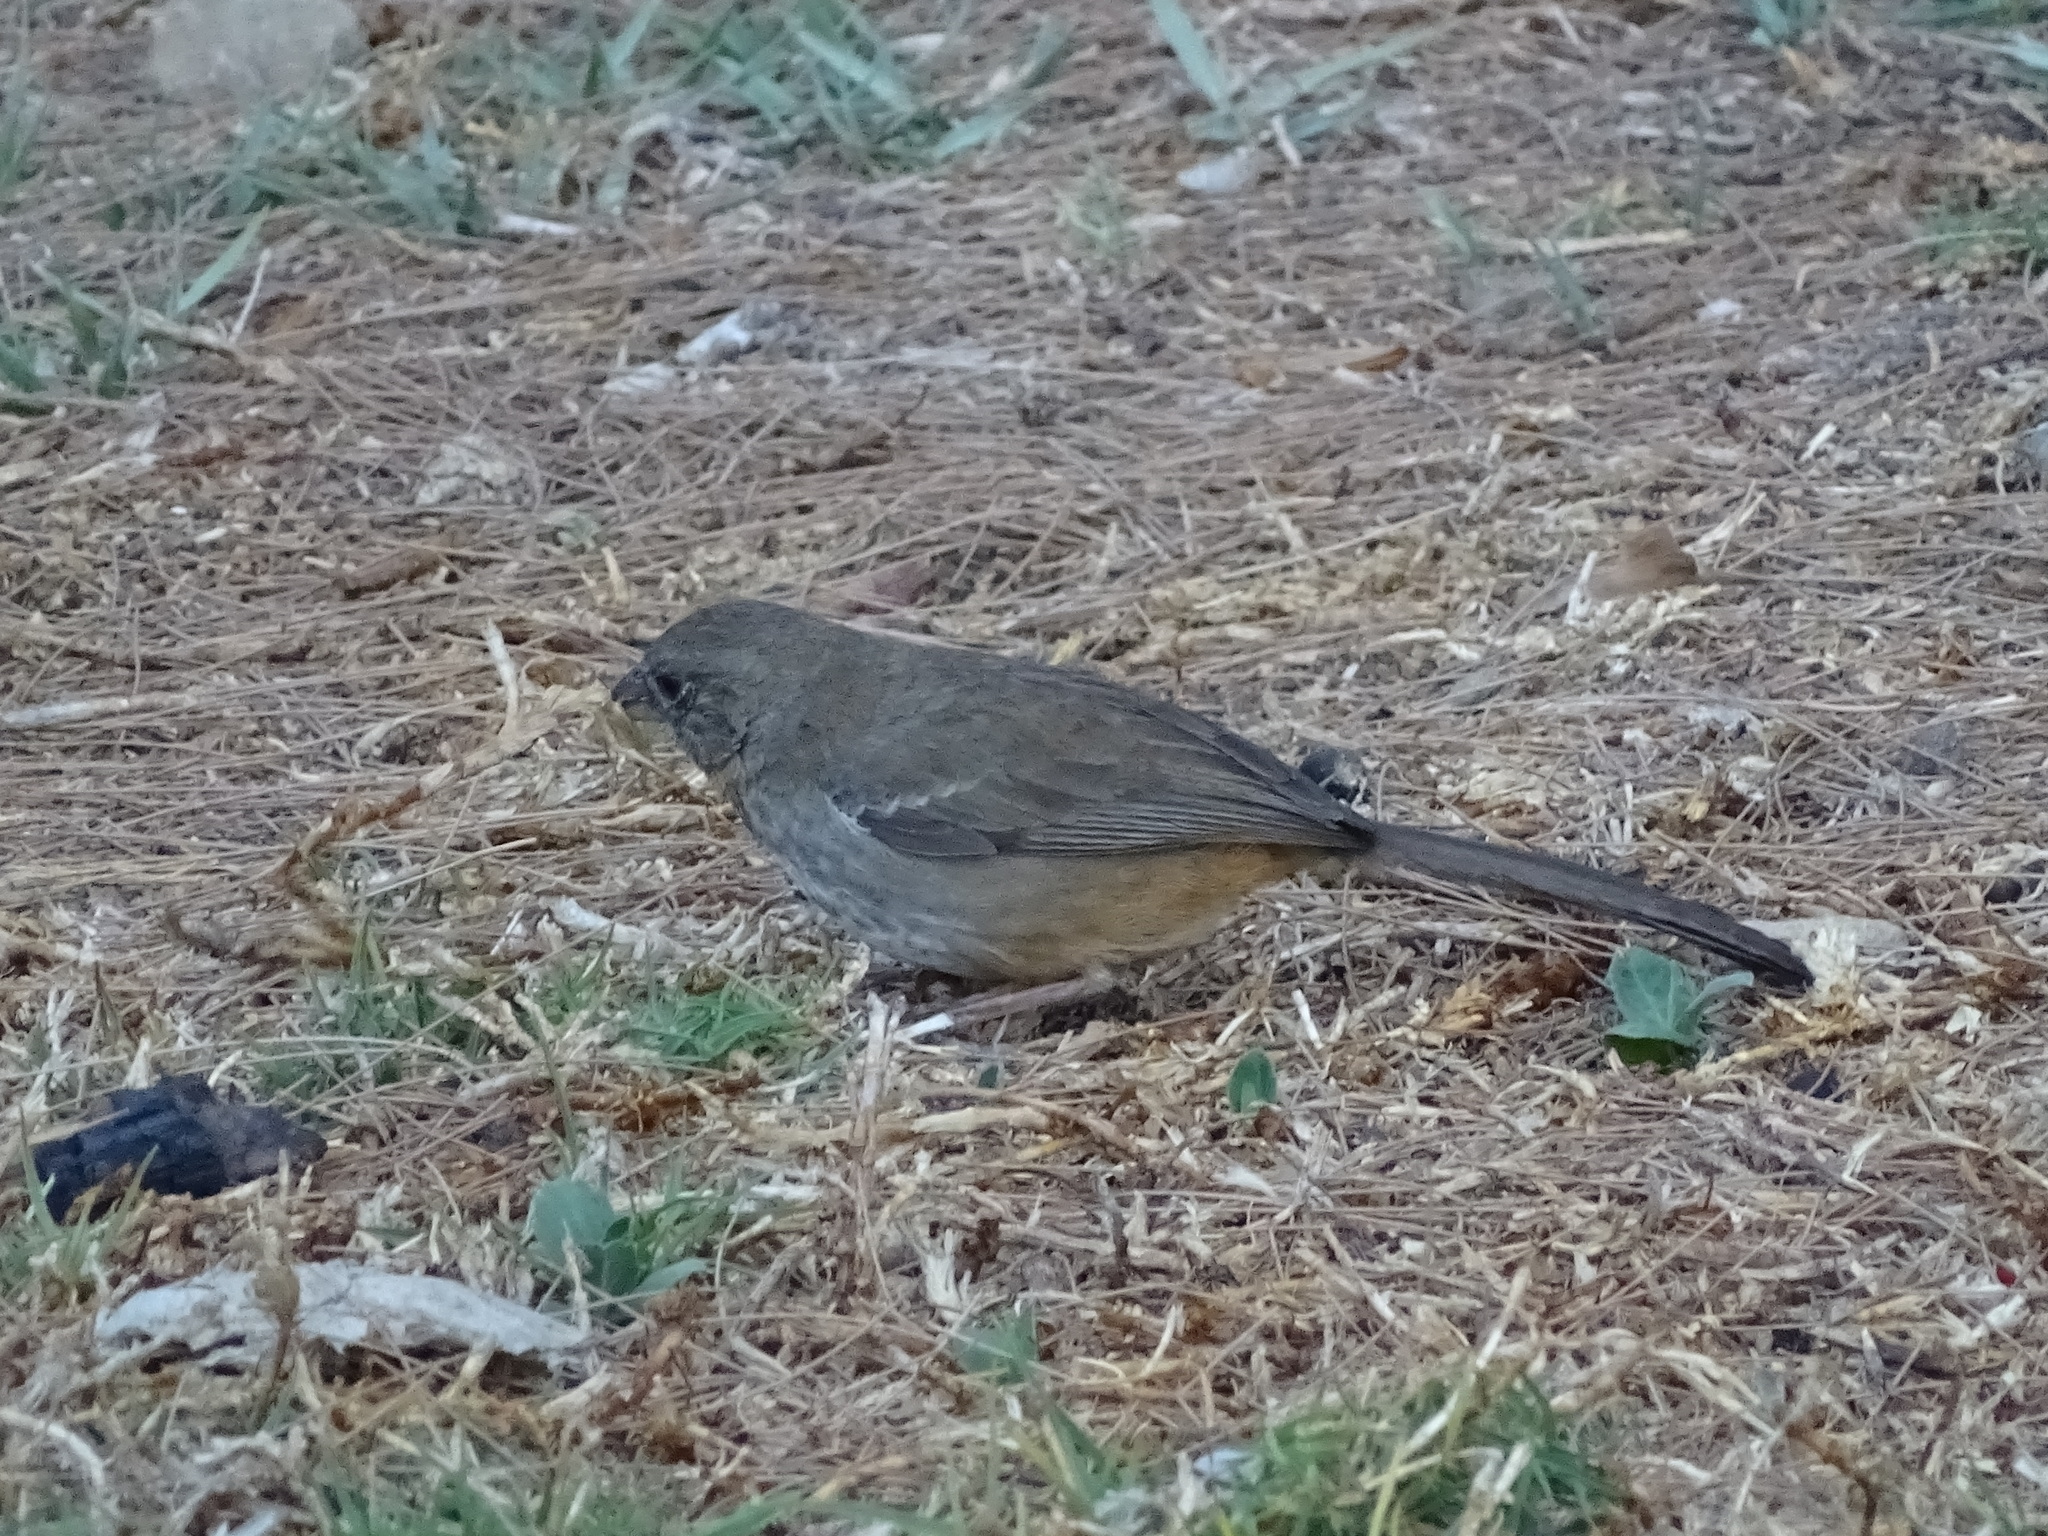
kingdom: Animalia
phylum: Chordata
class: Aves
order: Passeriformes
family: Passerellidae
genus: Melozone
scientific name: Melozone fusca
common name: Canyon towhee
